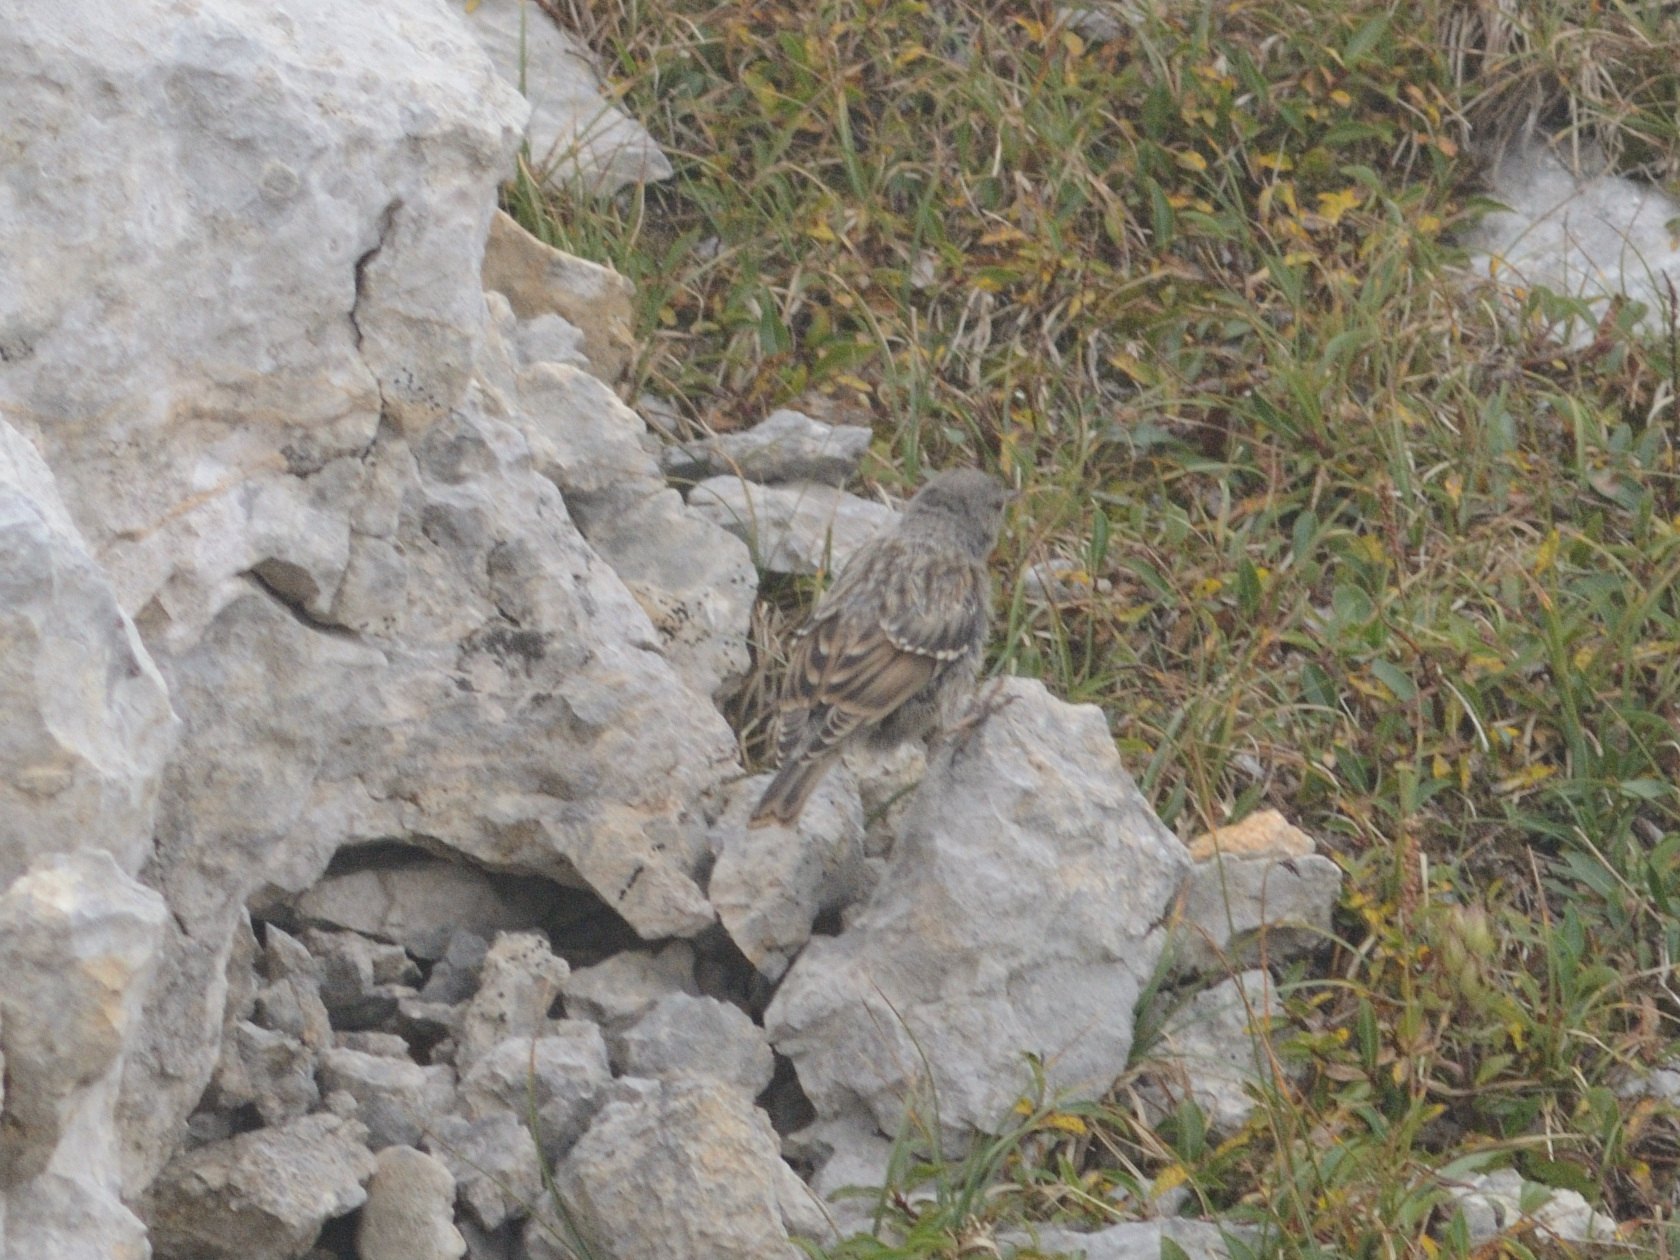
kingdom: Animalia
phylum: Chordata
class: Aves
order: Passeriformes
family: Prunellidae
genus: Prunella
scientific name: Prunella collaris
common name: Alpine accentor
